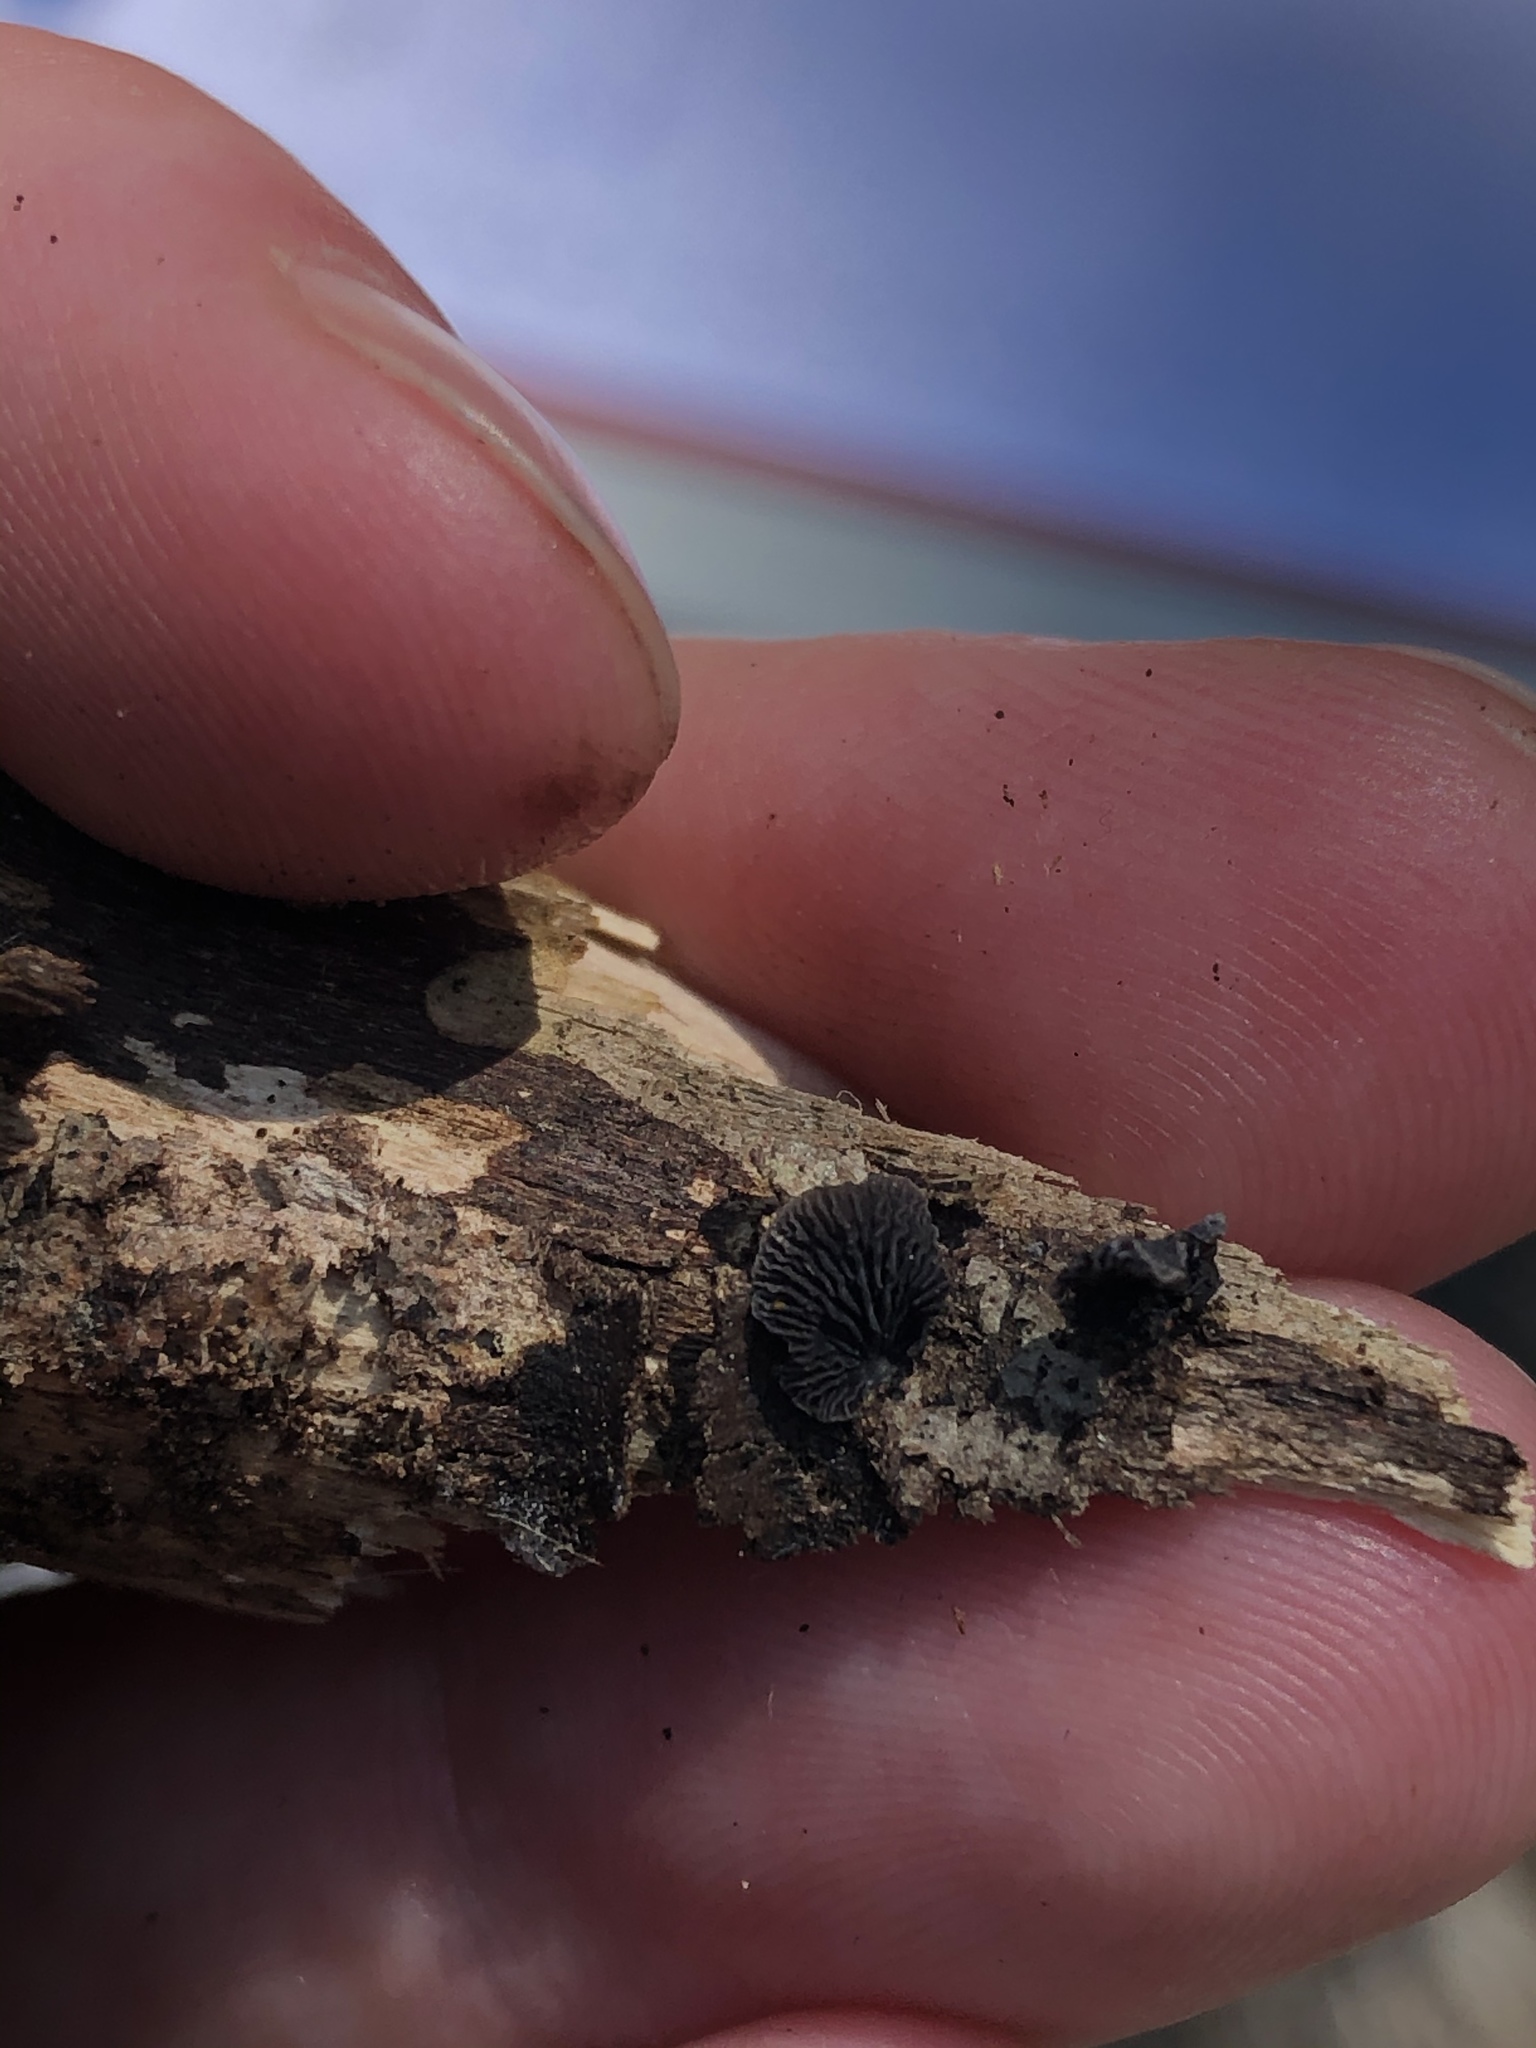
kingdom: Fungi
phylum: Basidiomycota
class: Agaricomycetes
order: Agaricales
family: Pleurotaceae
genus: Resupinatus
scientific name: Resupinatus applicatus
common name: Smoked oysterling
